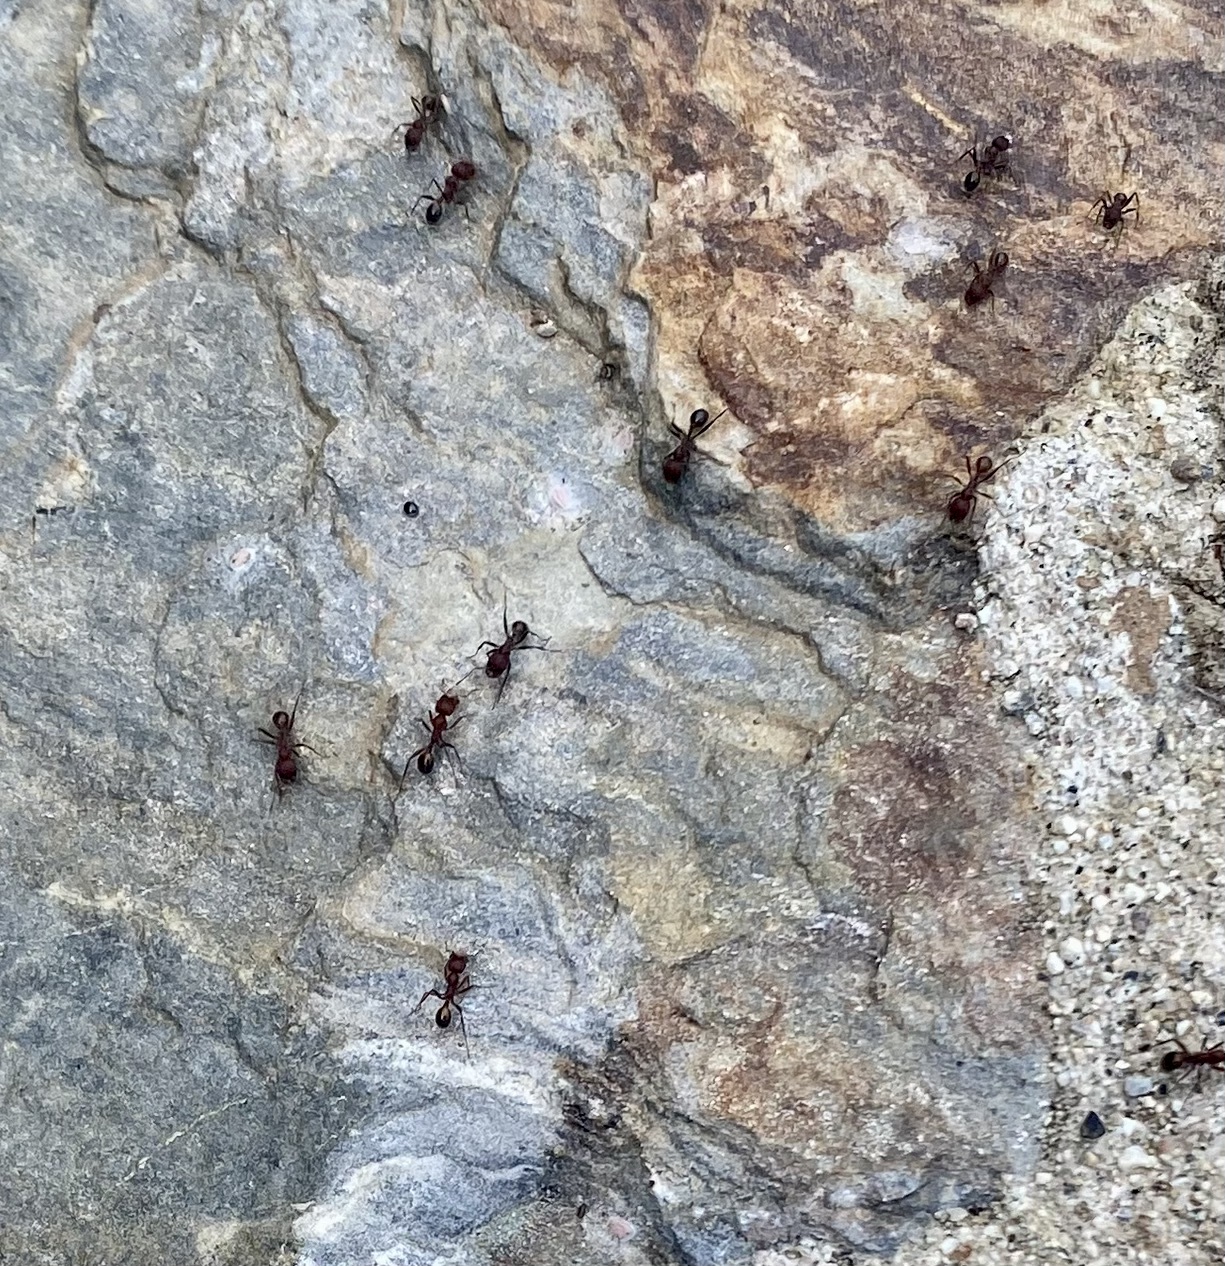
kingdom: Animalia
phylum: Arthropoda
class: Insecta
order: Hymenoptera
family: Formicidae
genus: Veromessor
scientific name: Veromessor andrei
